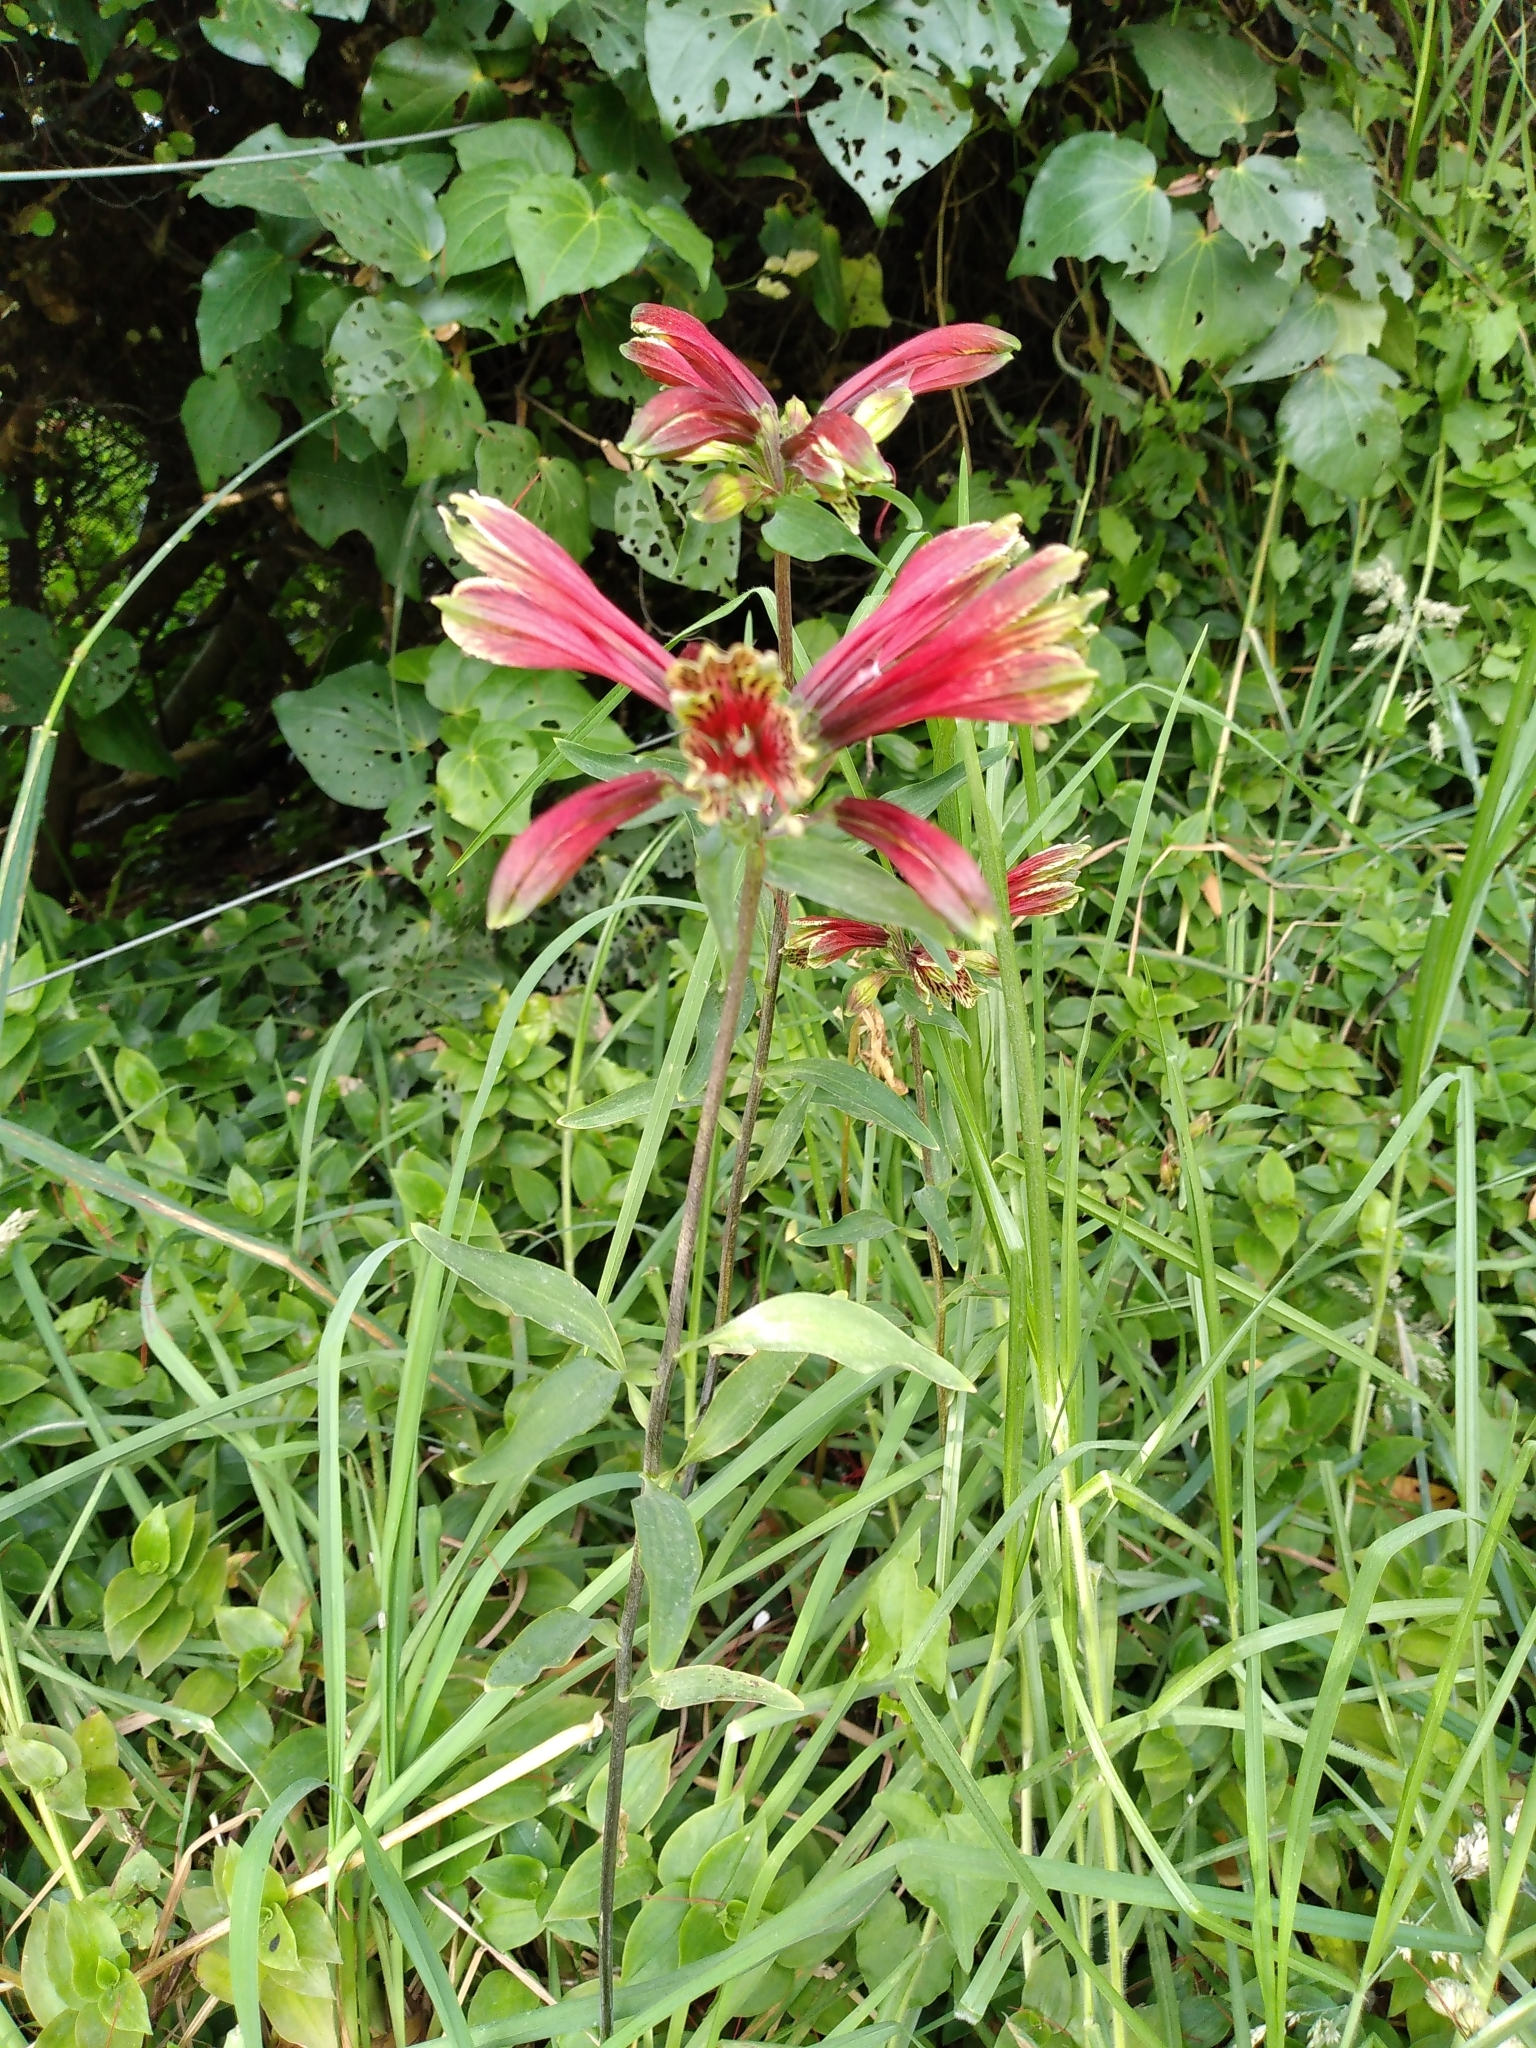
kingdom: Plantae
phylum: Tracheophyta
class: Liliopsida
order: Liliales
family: Alstroemeriaceae
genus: Alstroemeria
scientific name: Alstroemeria psittacina
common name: Peruvian-lily
